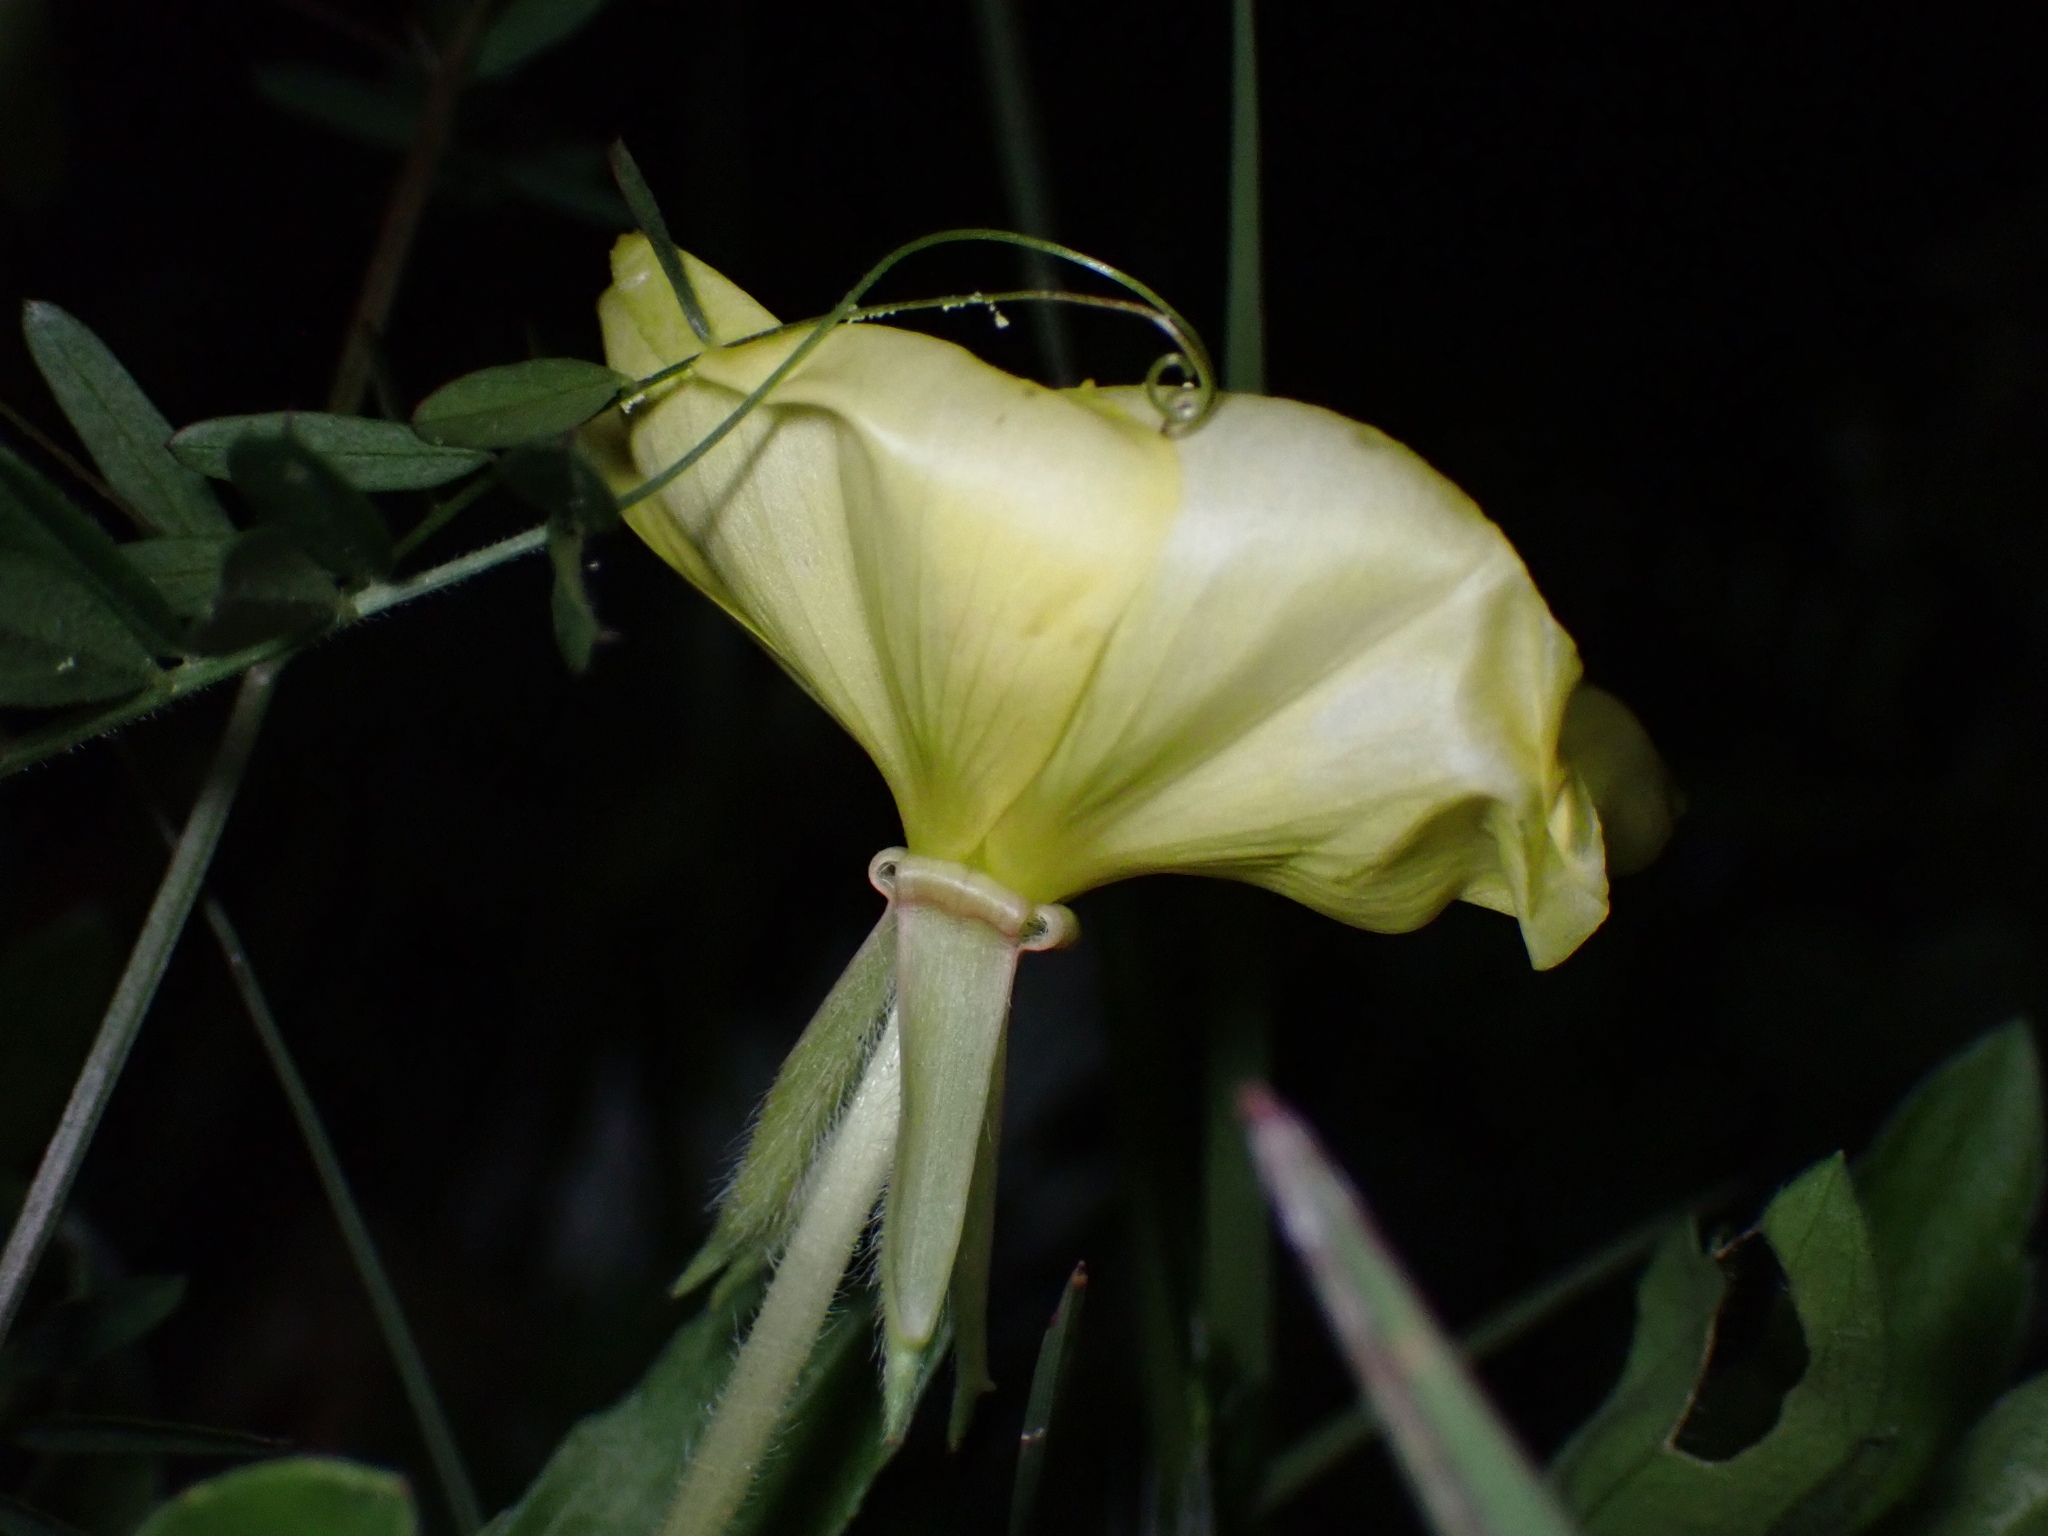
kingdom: Plantae
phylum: Tracheophyta
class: Magnoliopsida
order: Myrtales
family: Onagraceae
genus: Oenothera
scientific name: Oenothera laciniata
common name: Cut-leaved evening-primrose
